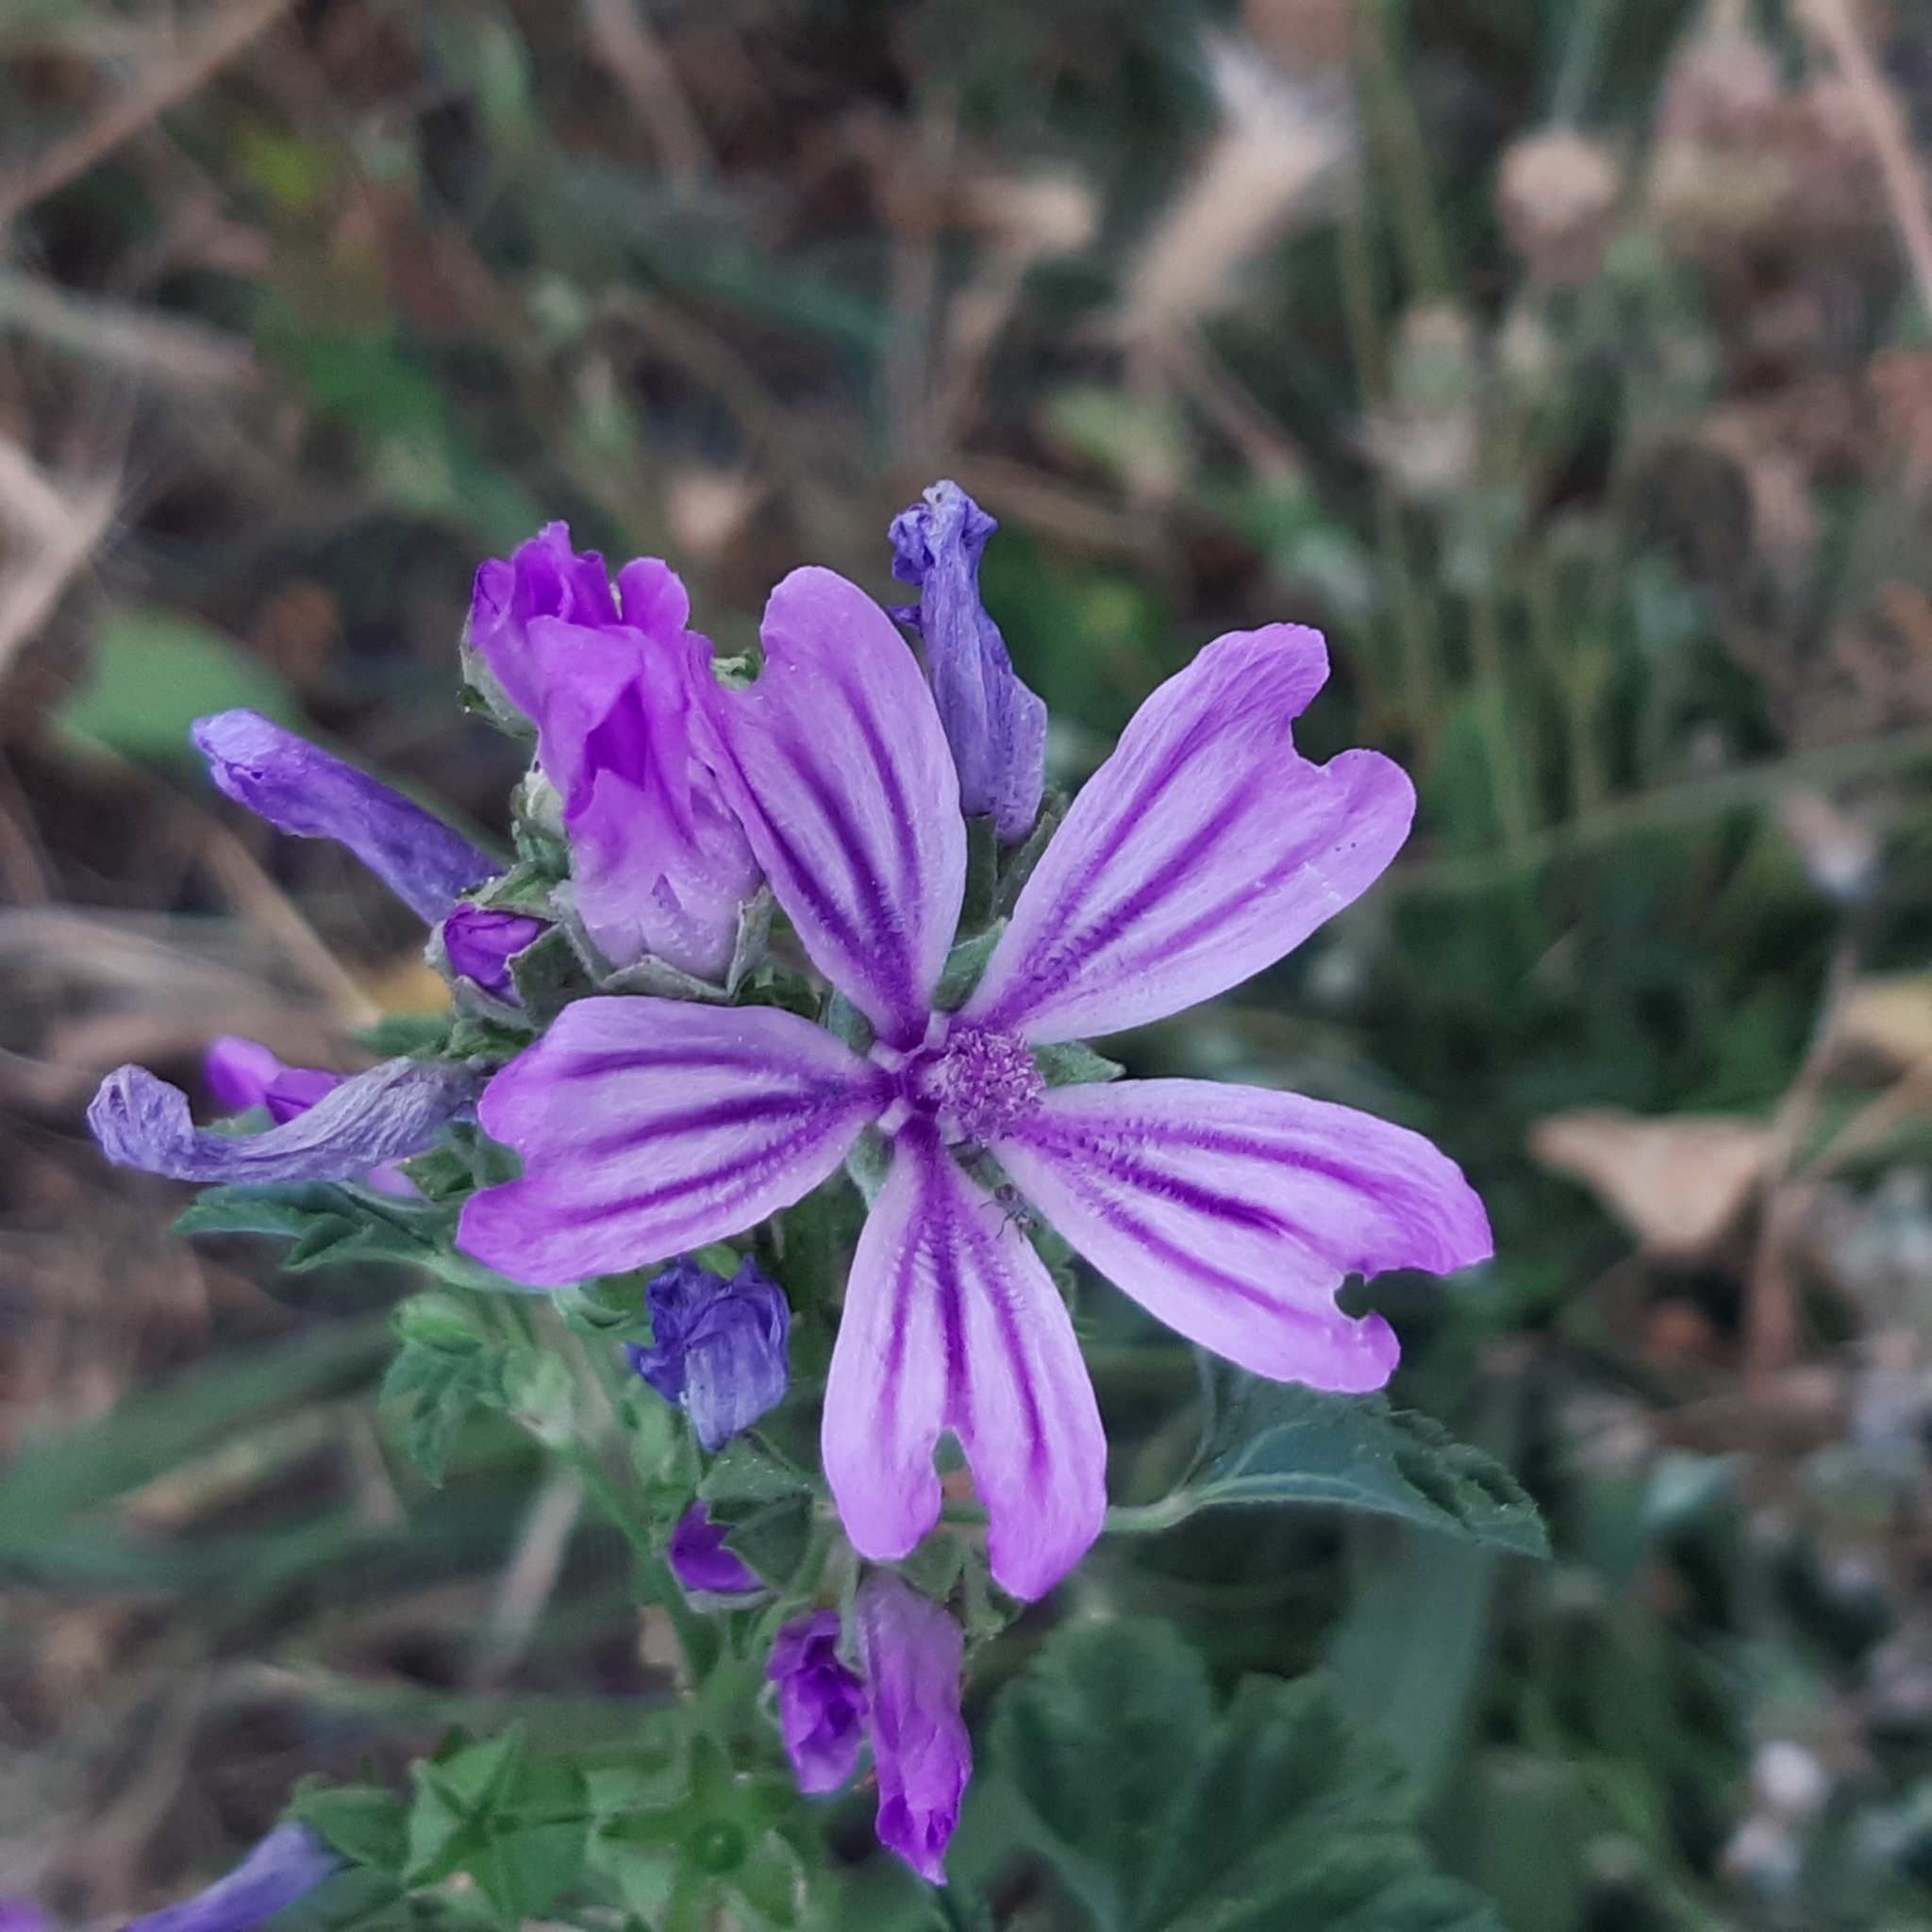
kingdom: Plantae
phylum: Tracheophyta
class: Magnoliopsida
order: Malvales
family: Malvaceae
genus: Malva
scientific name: Malva sylvestris
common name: Common mallow
